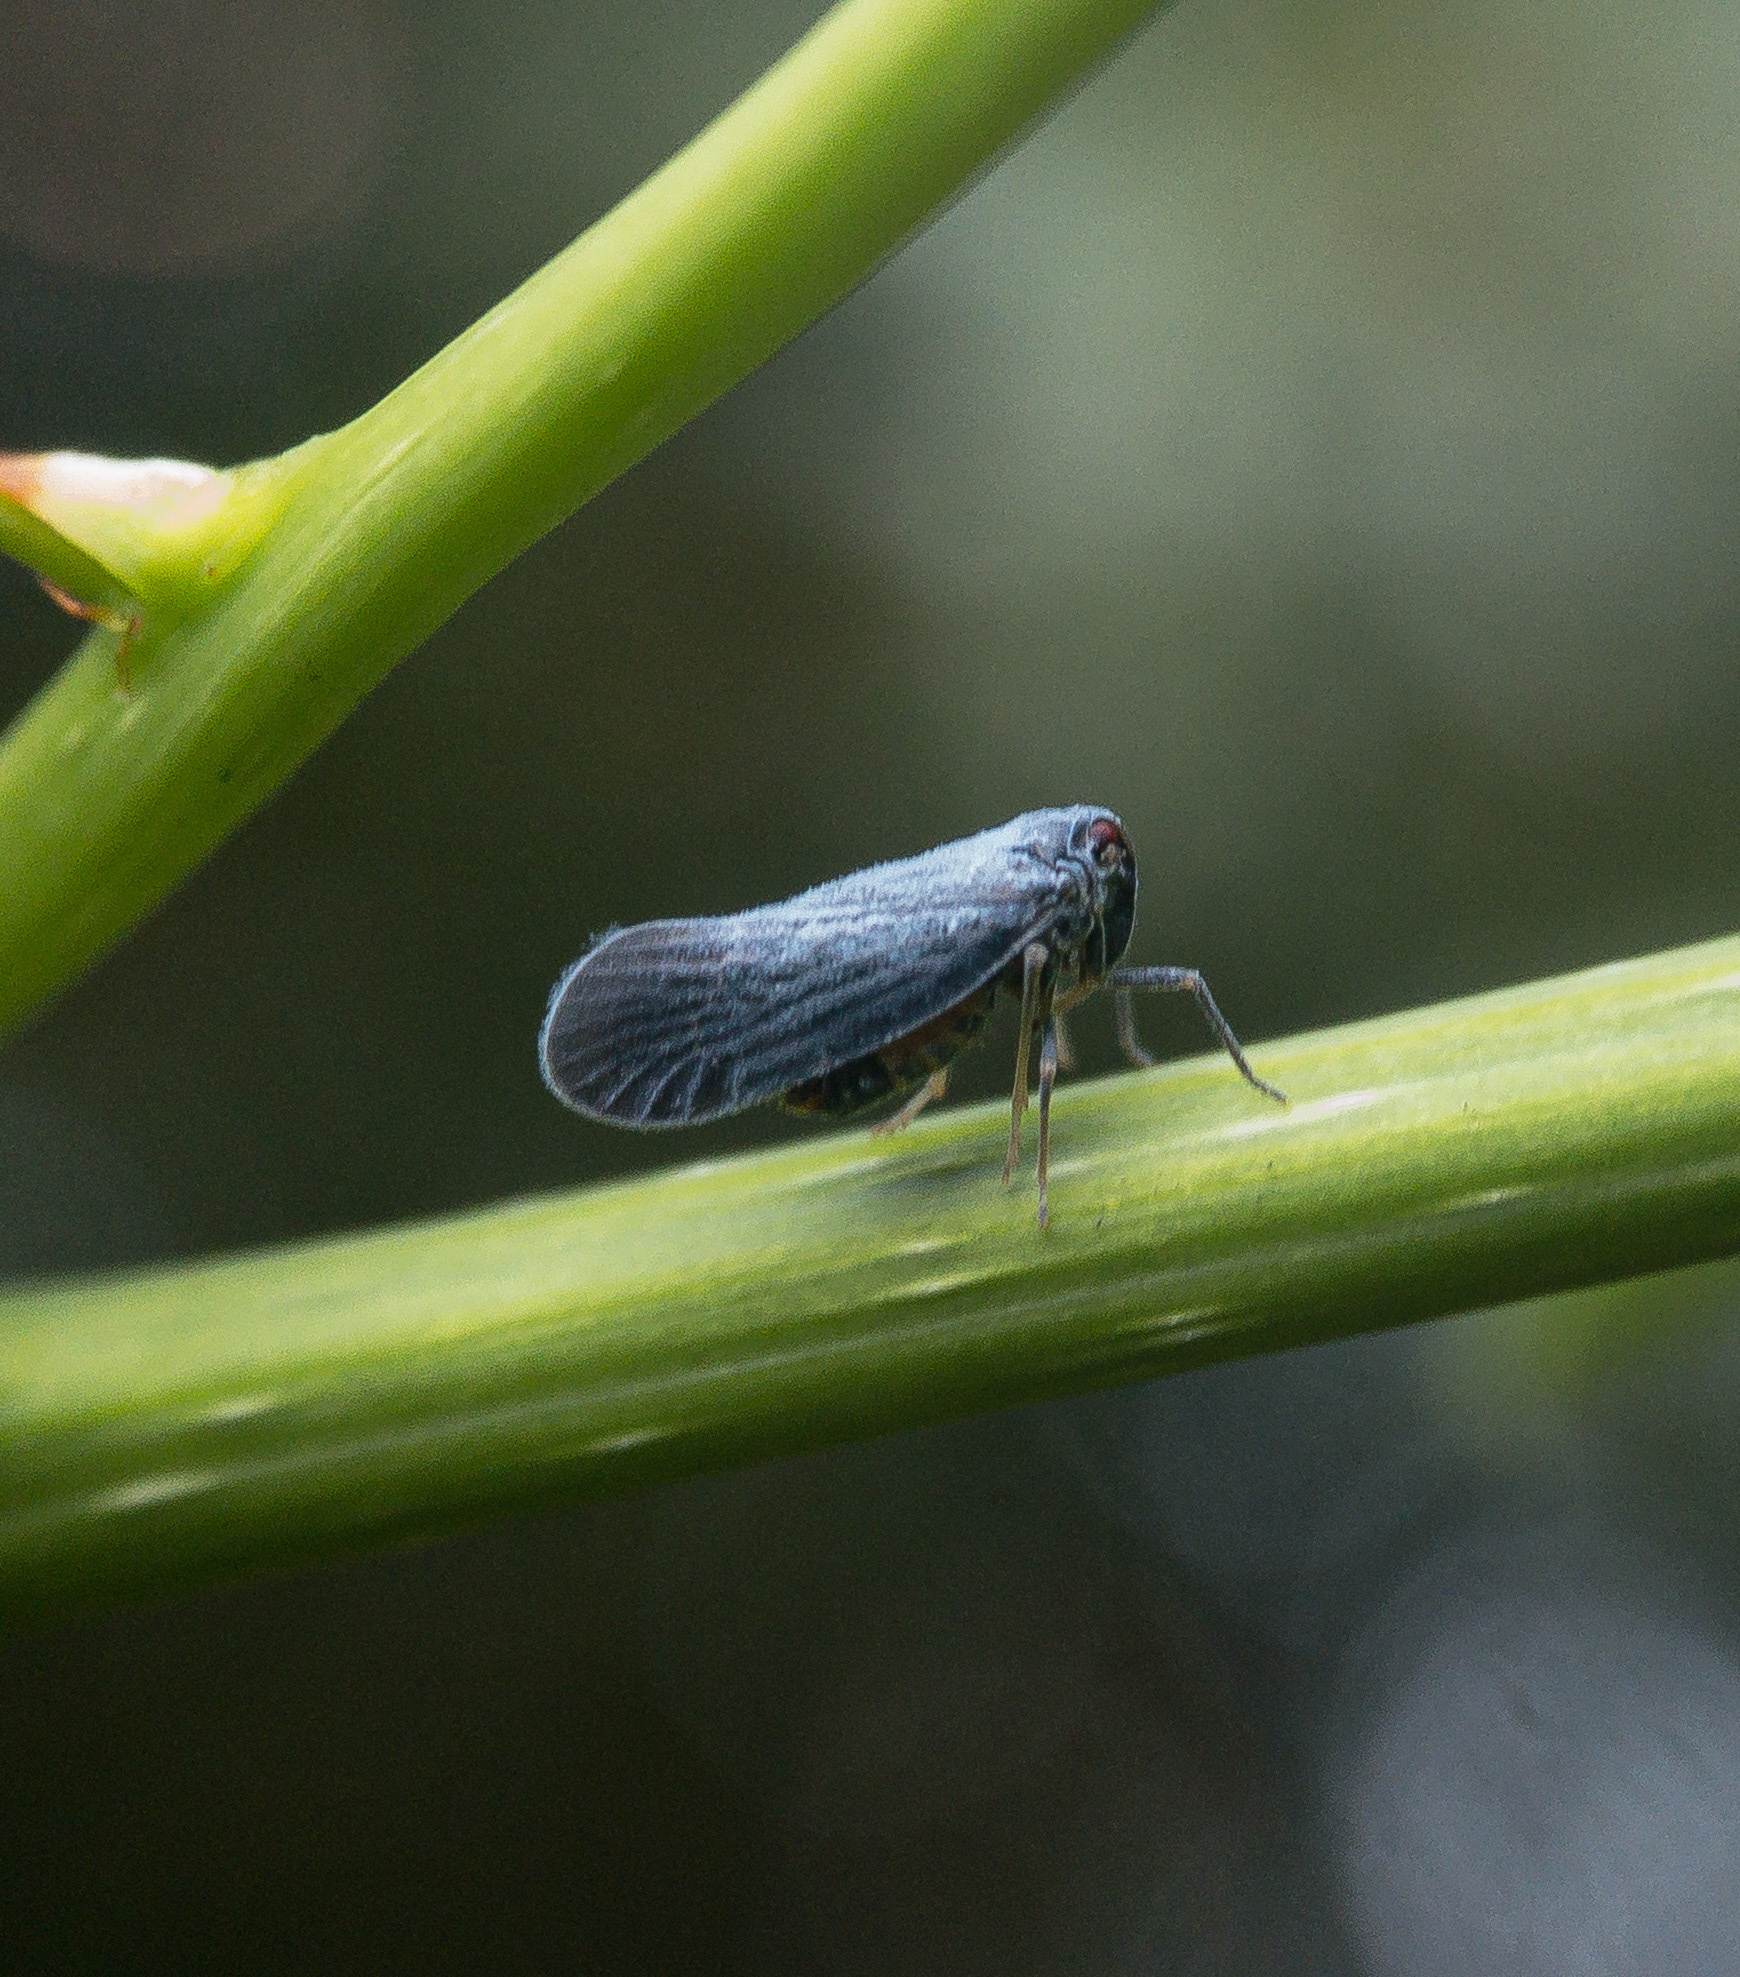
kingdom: Animalia
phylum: Arthropoda
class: Insecta
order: Hemiptera
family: Derbidae
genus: Cedusa
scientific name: Cedusa
